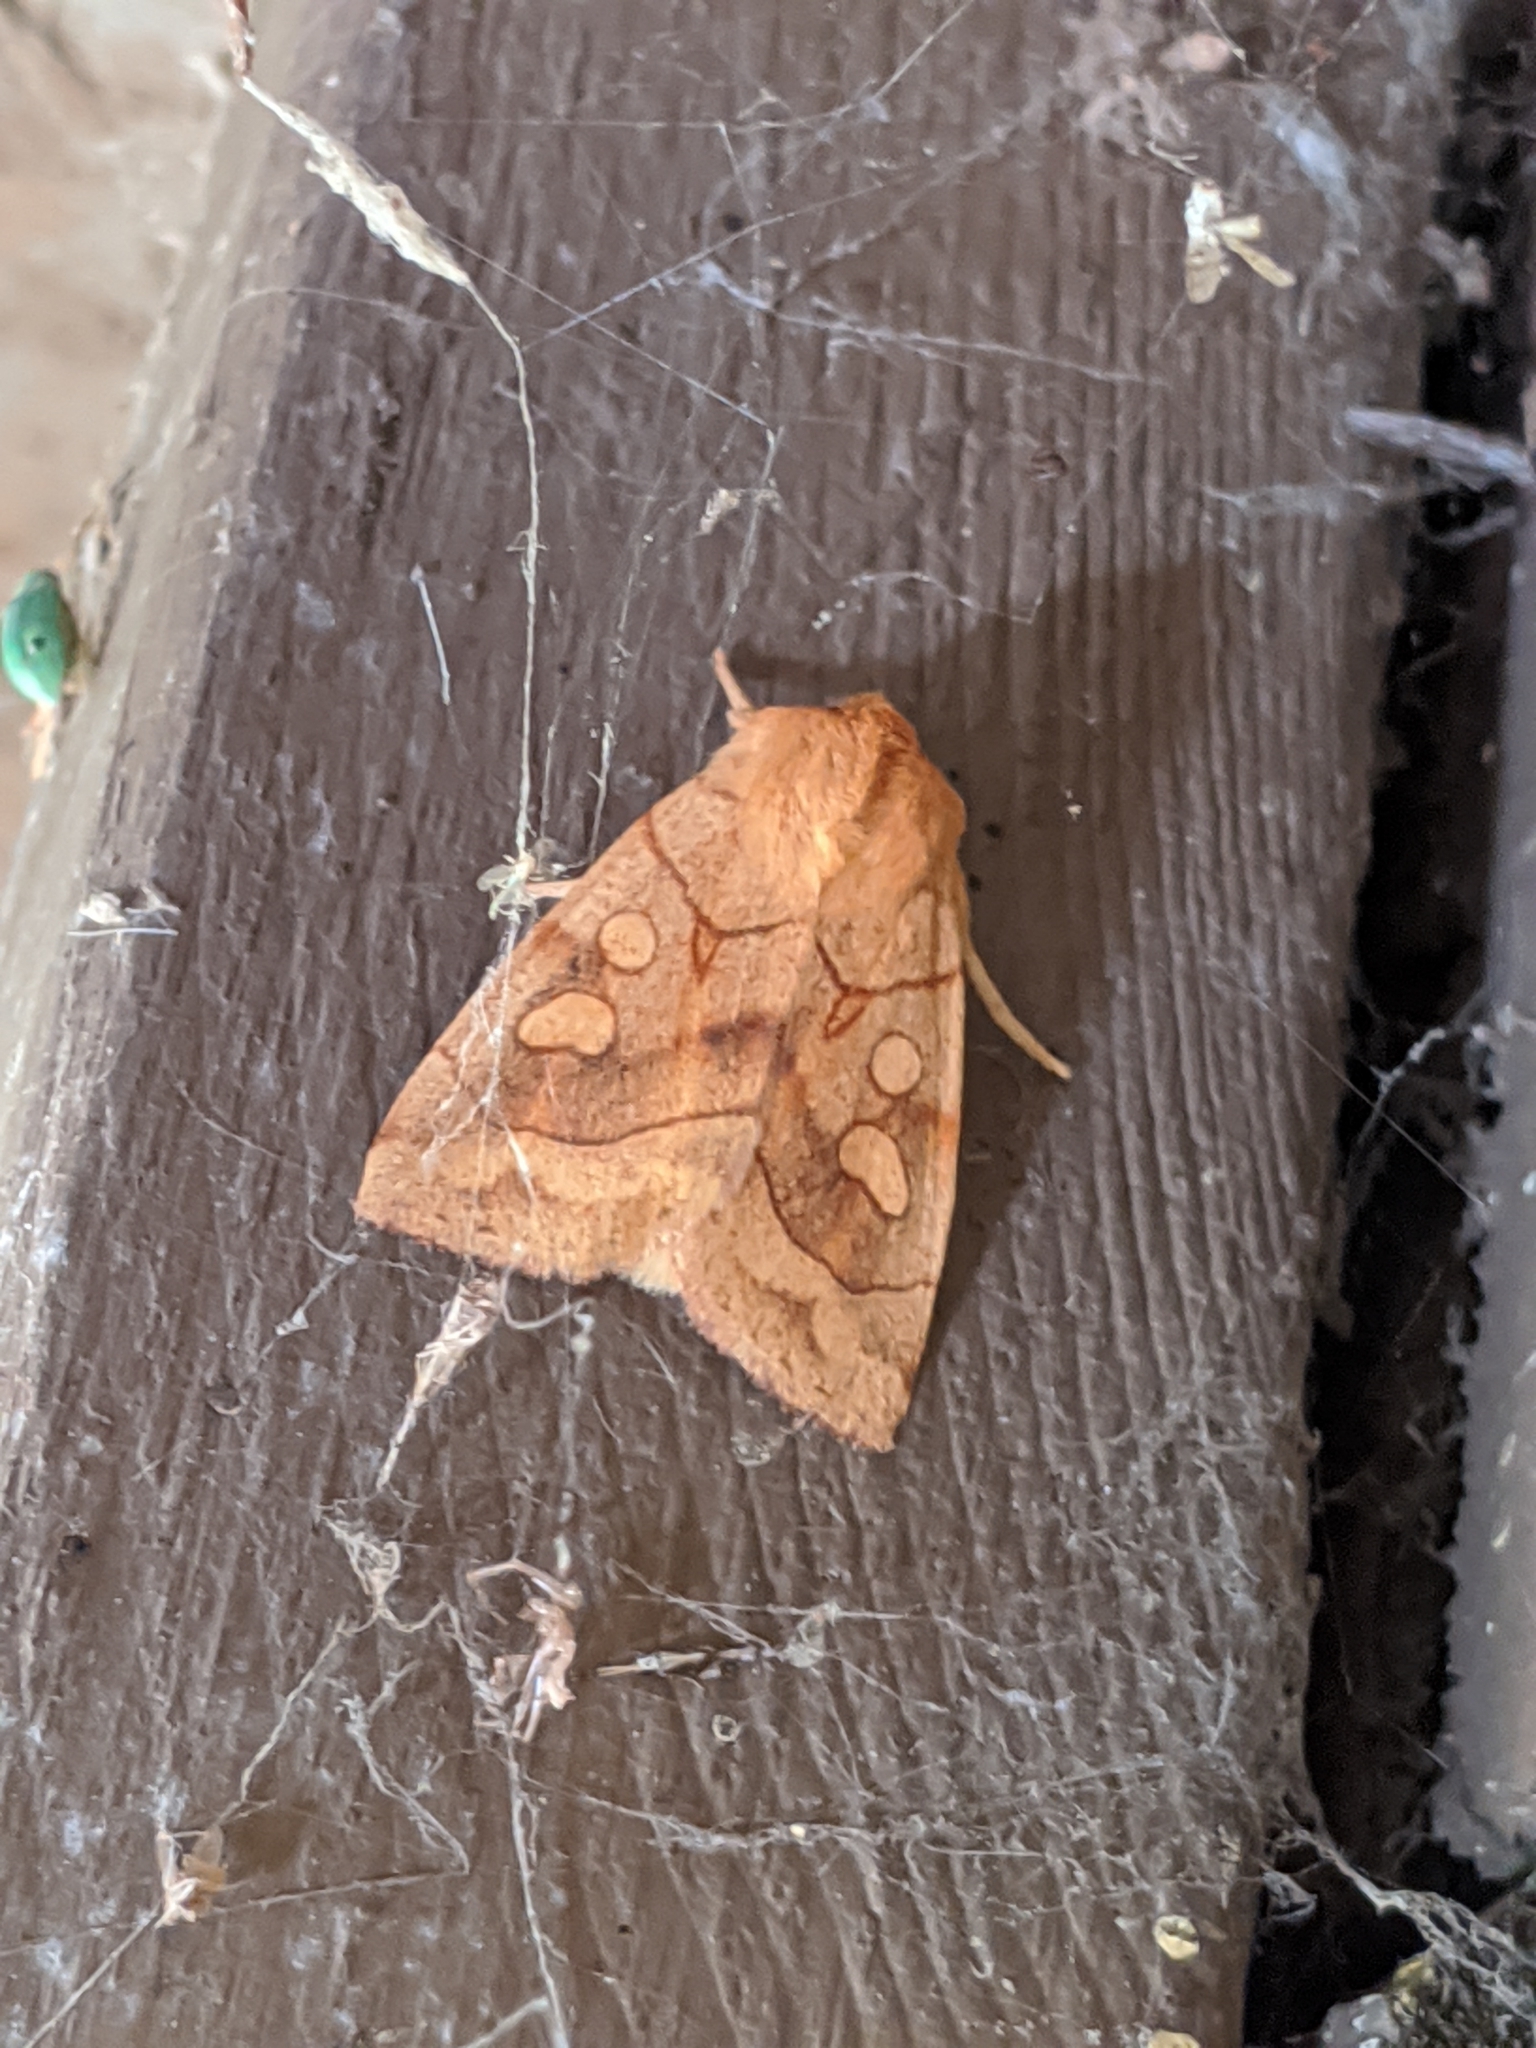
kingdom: Animalia
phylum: Arthropoda
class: Insecta
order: Lepidoptera
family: Noctuidae
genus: Enargia
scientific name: Enargia decolor
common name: Aspen twoleaf tier moth
